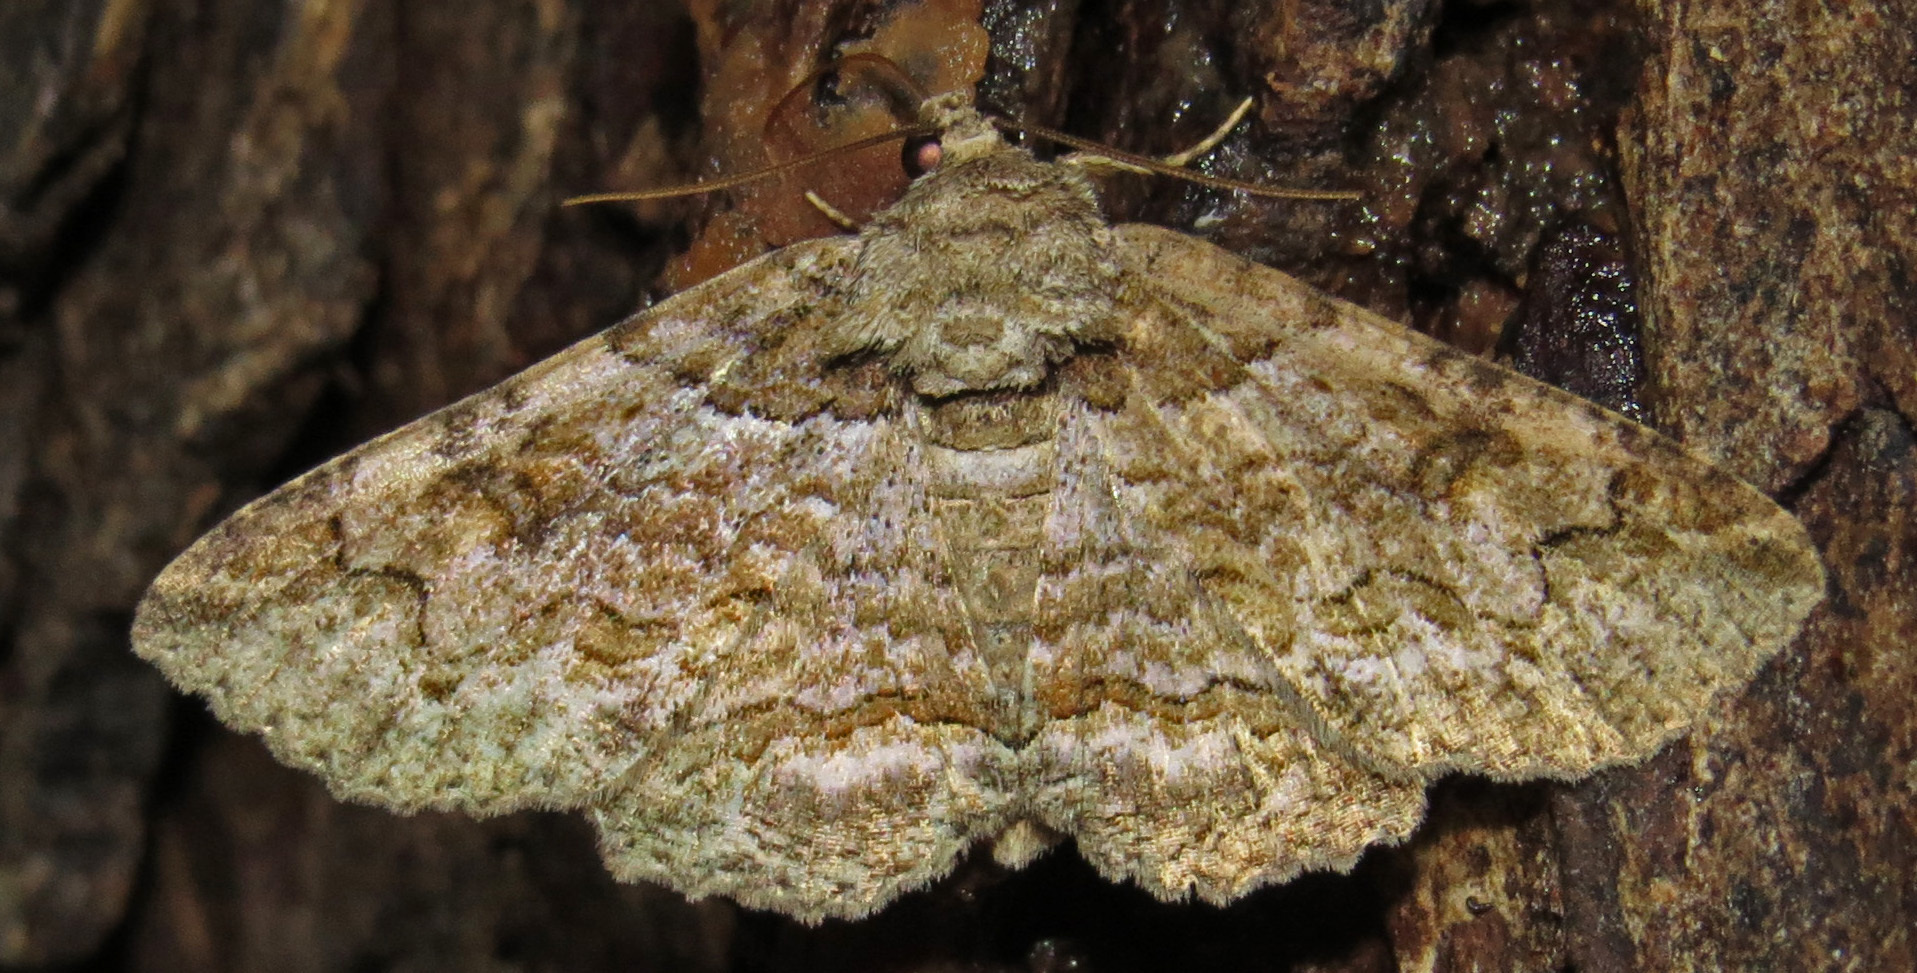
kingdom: Animalia
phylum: Arthropoda
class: Insecta
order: Lepidoptera
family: Erebidae
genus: Zale
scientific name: Zale galbanata
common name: Maple zale
